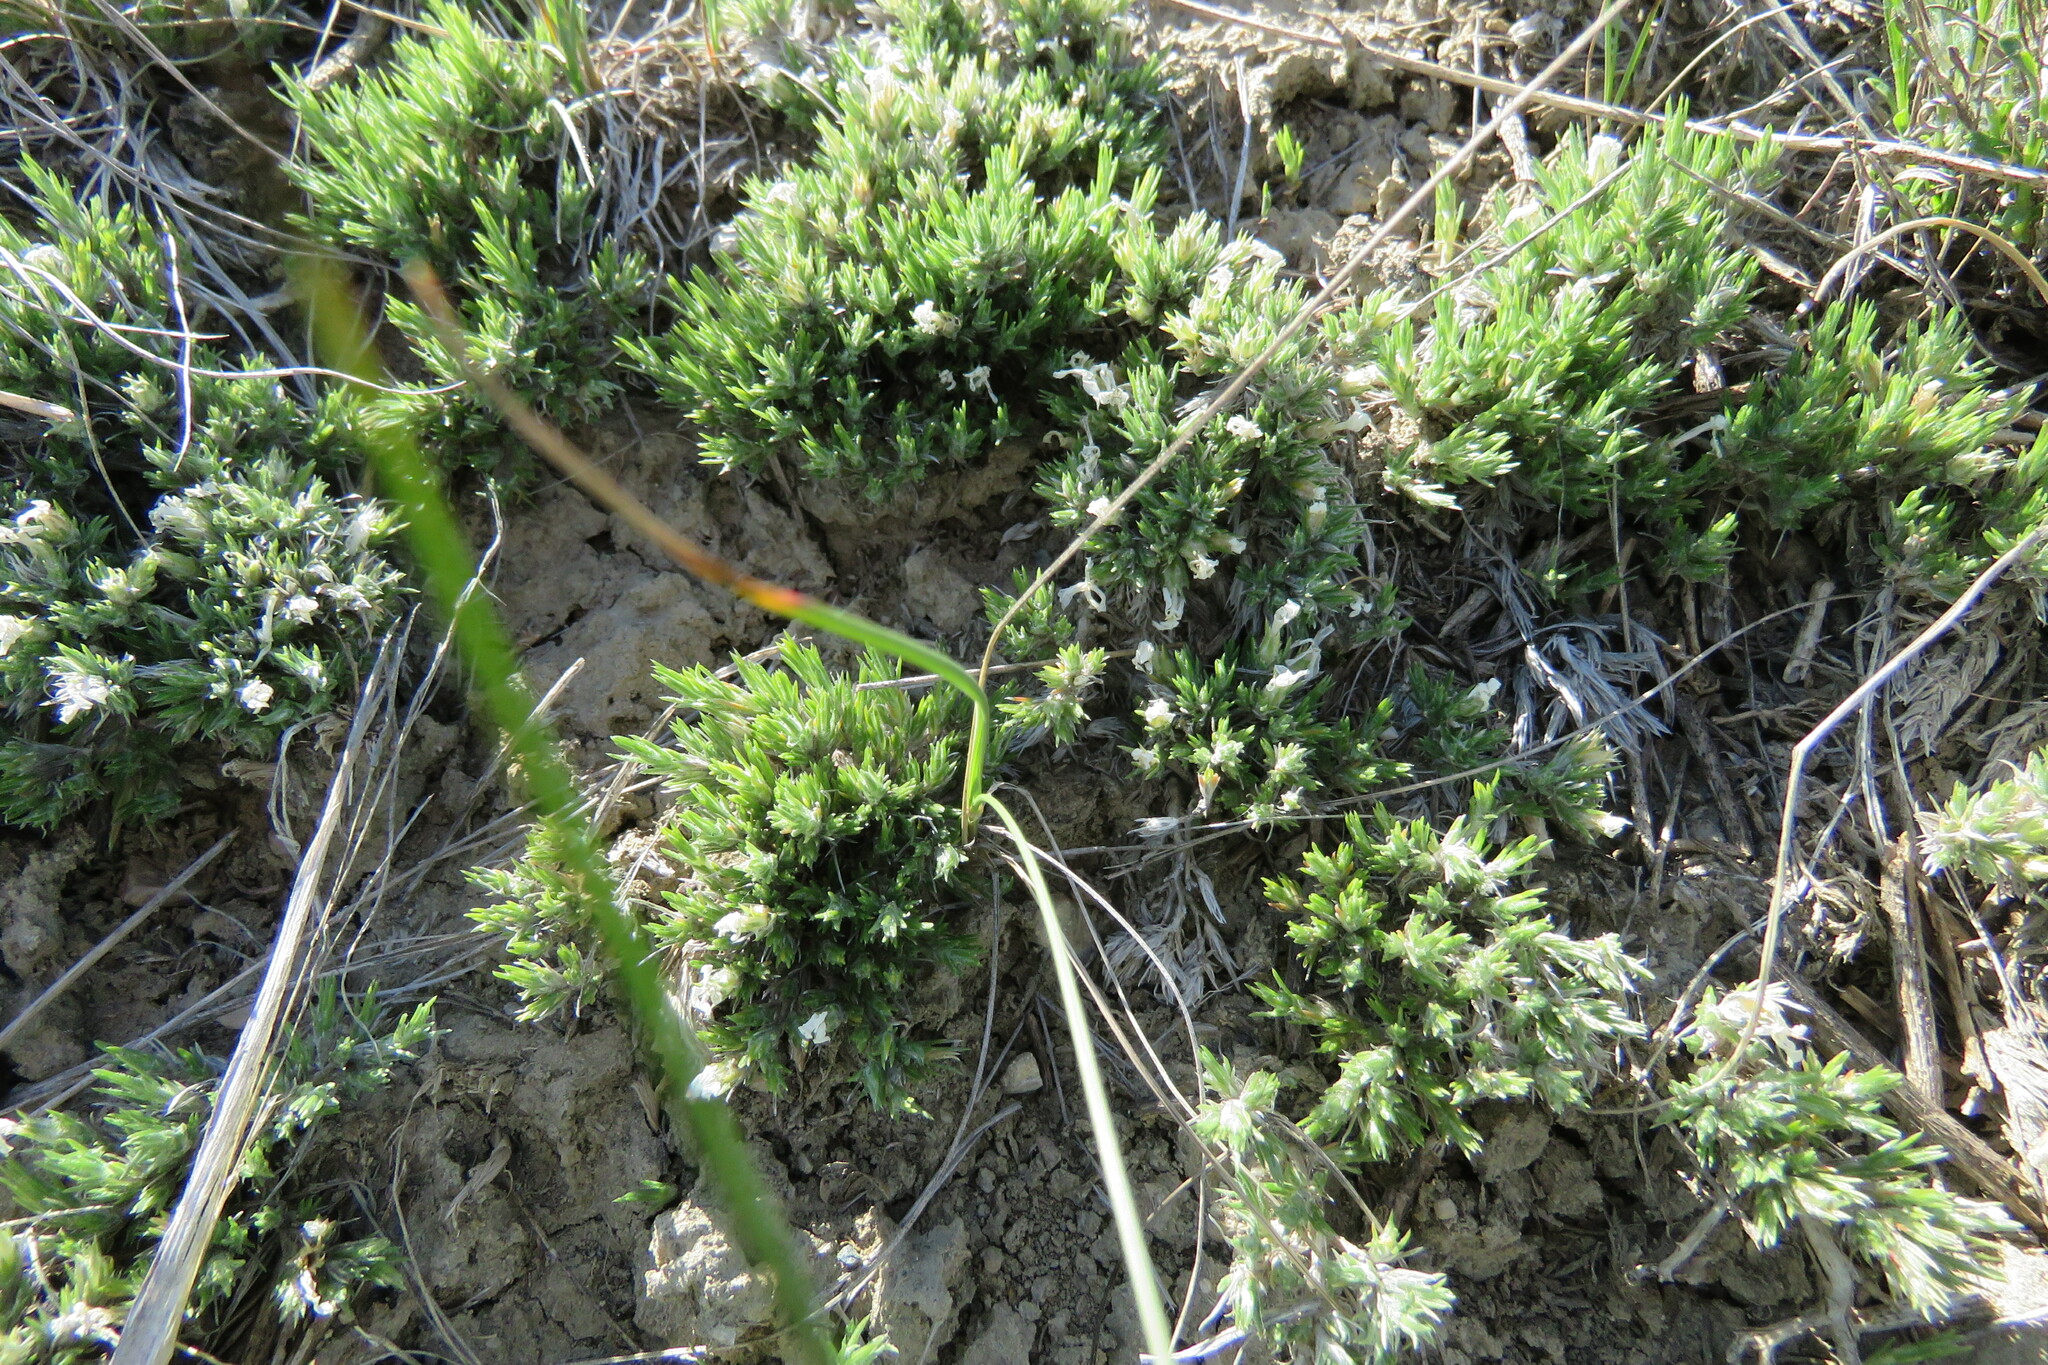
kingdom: Plantae
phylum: Tracheophyta
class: Magnoliopsida
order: Ericales
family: Polemoniaceae
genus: Phlox
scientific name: Phlox hoodii
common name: Moss phlox
